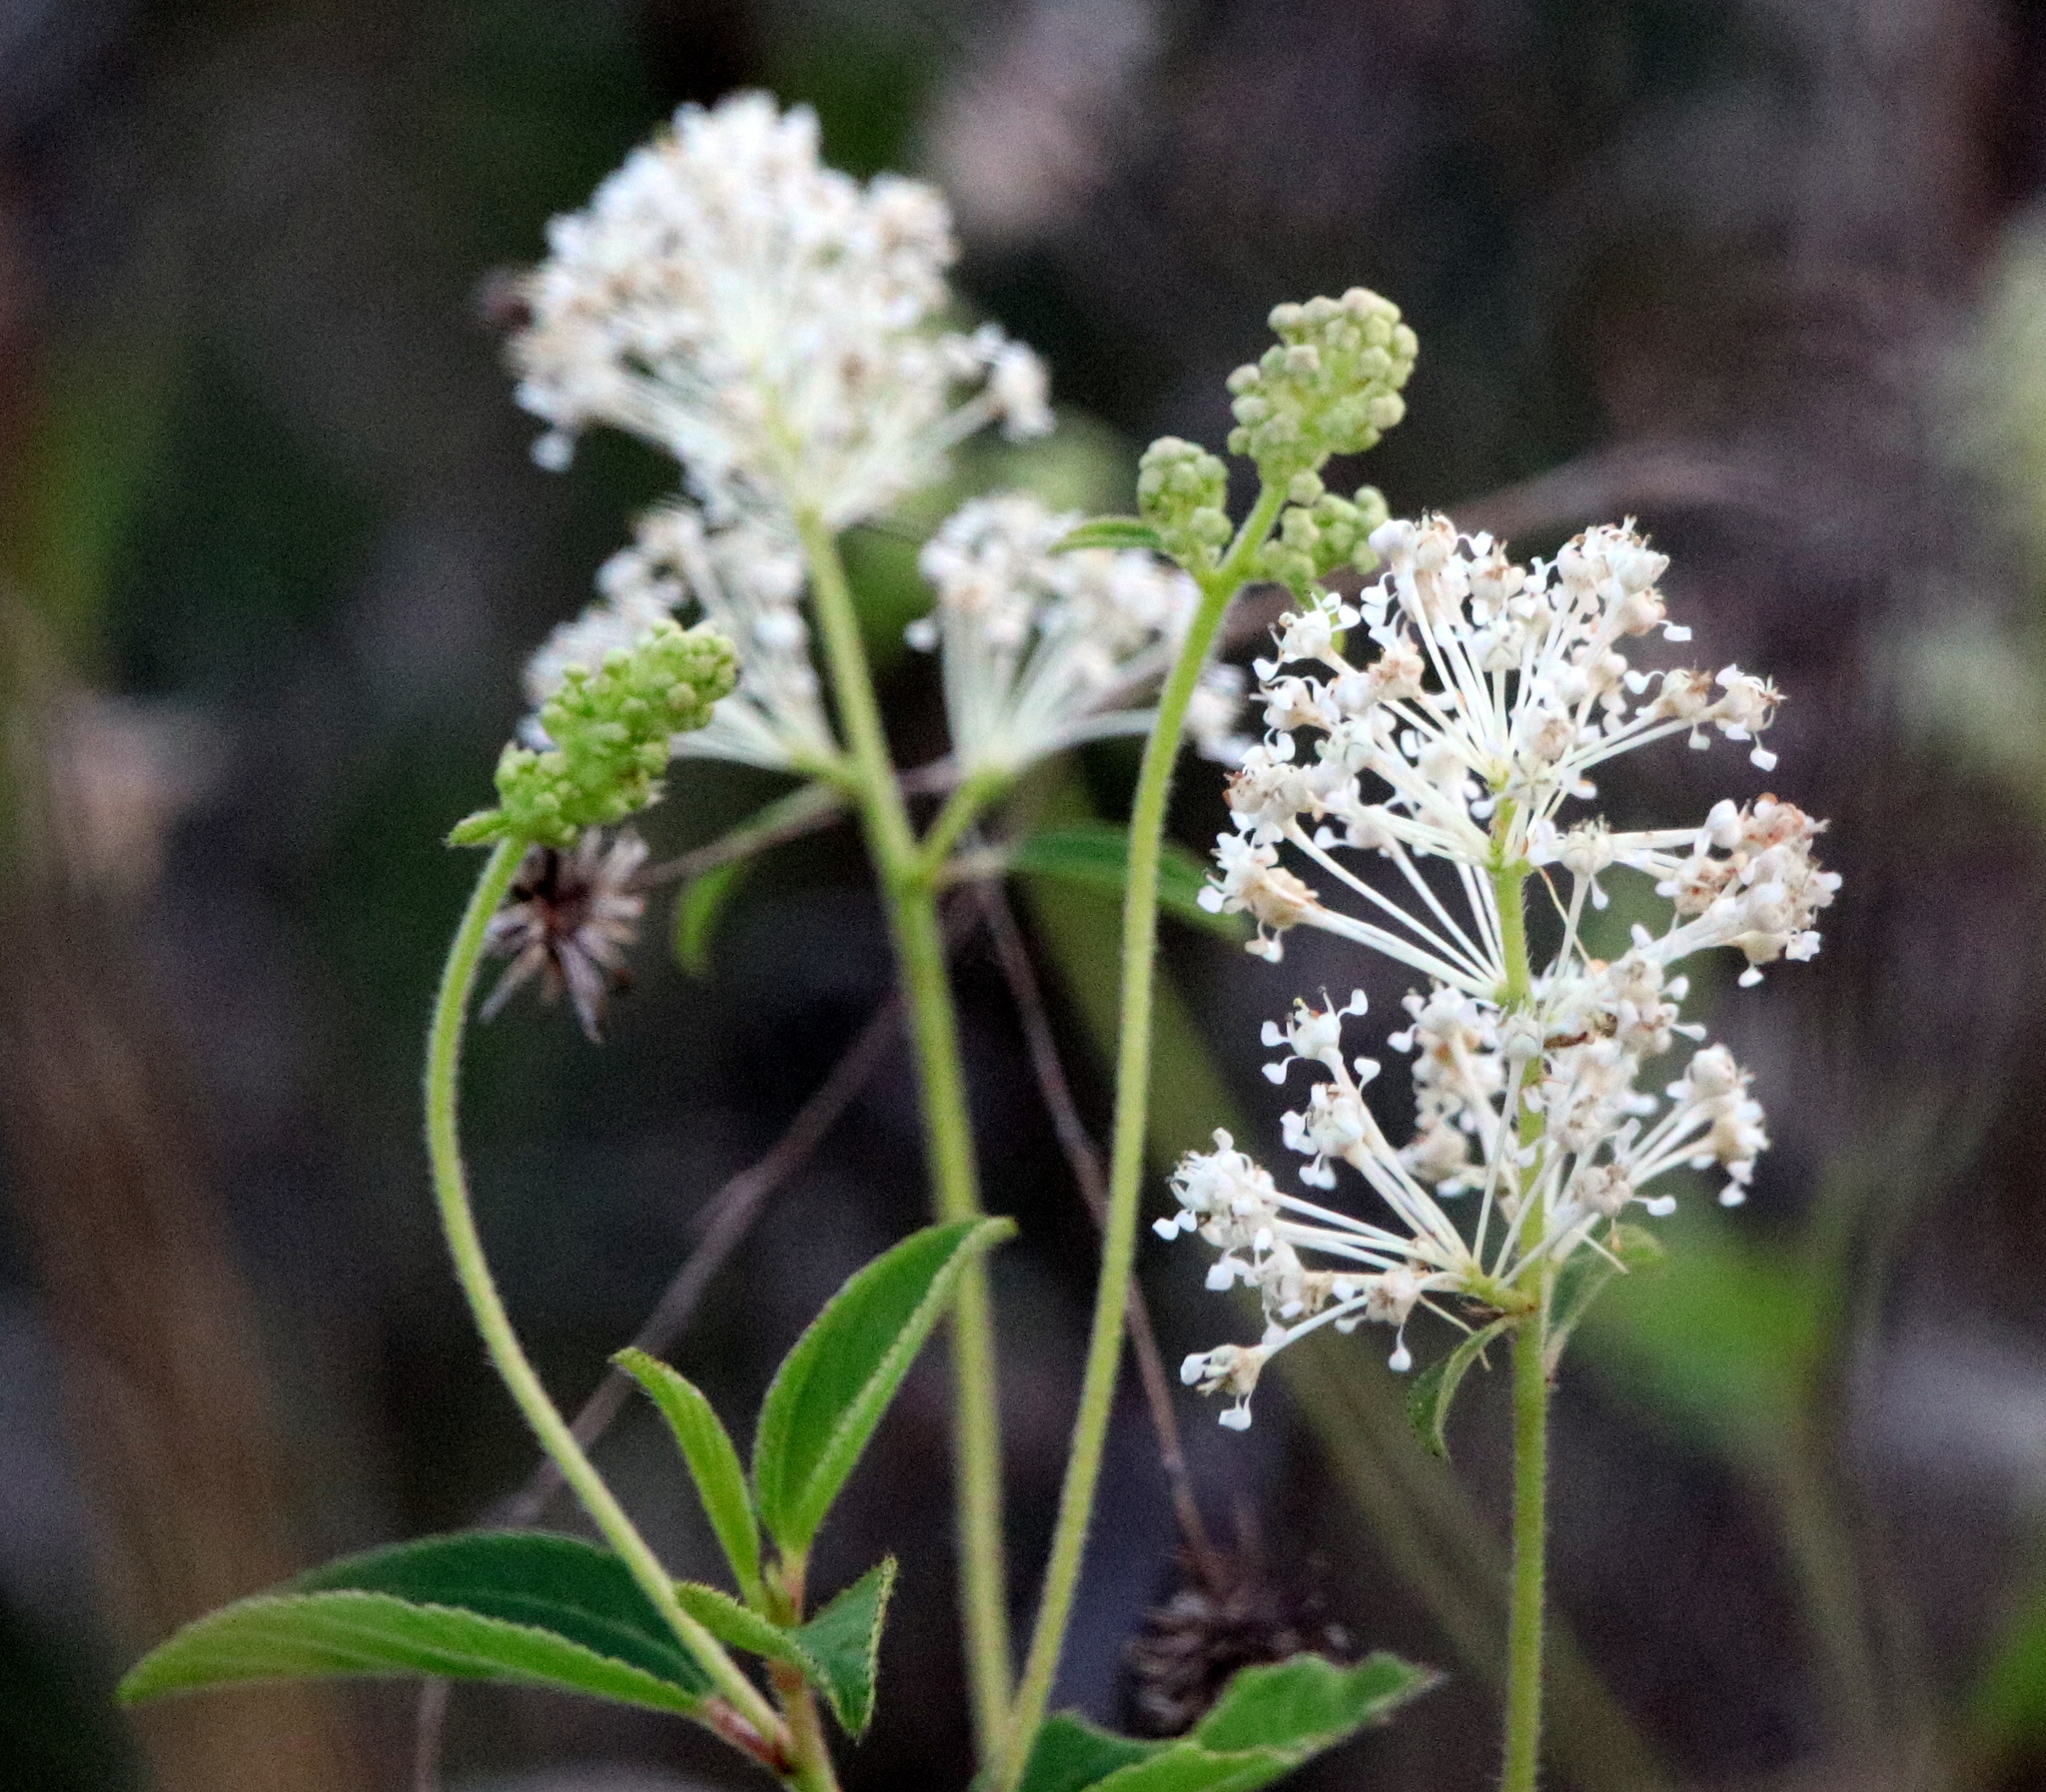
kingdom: Plantae
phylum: Tracheophyta
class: Magnoliopsida
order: Rosales
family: Rhamnaceae
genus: Ceanothus
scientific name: Ceanothus americanus
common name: Redroot
